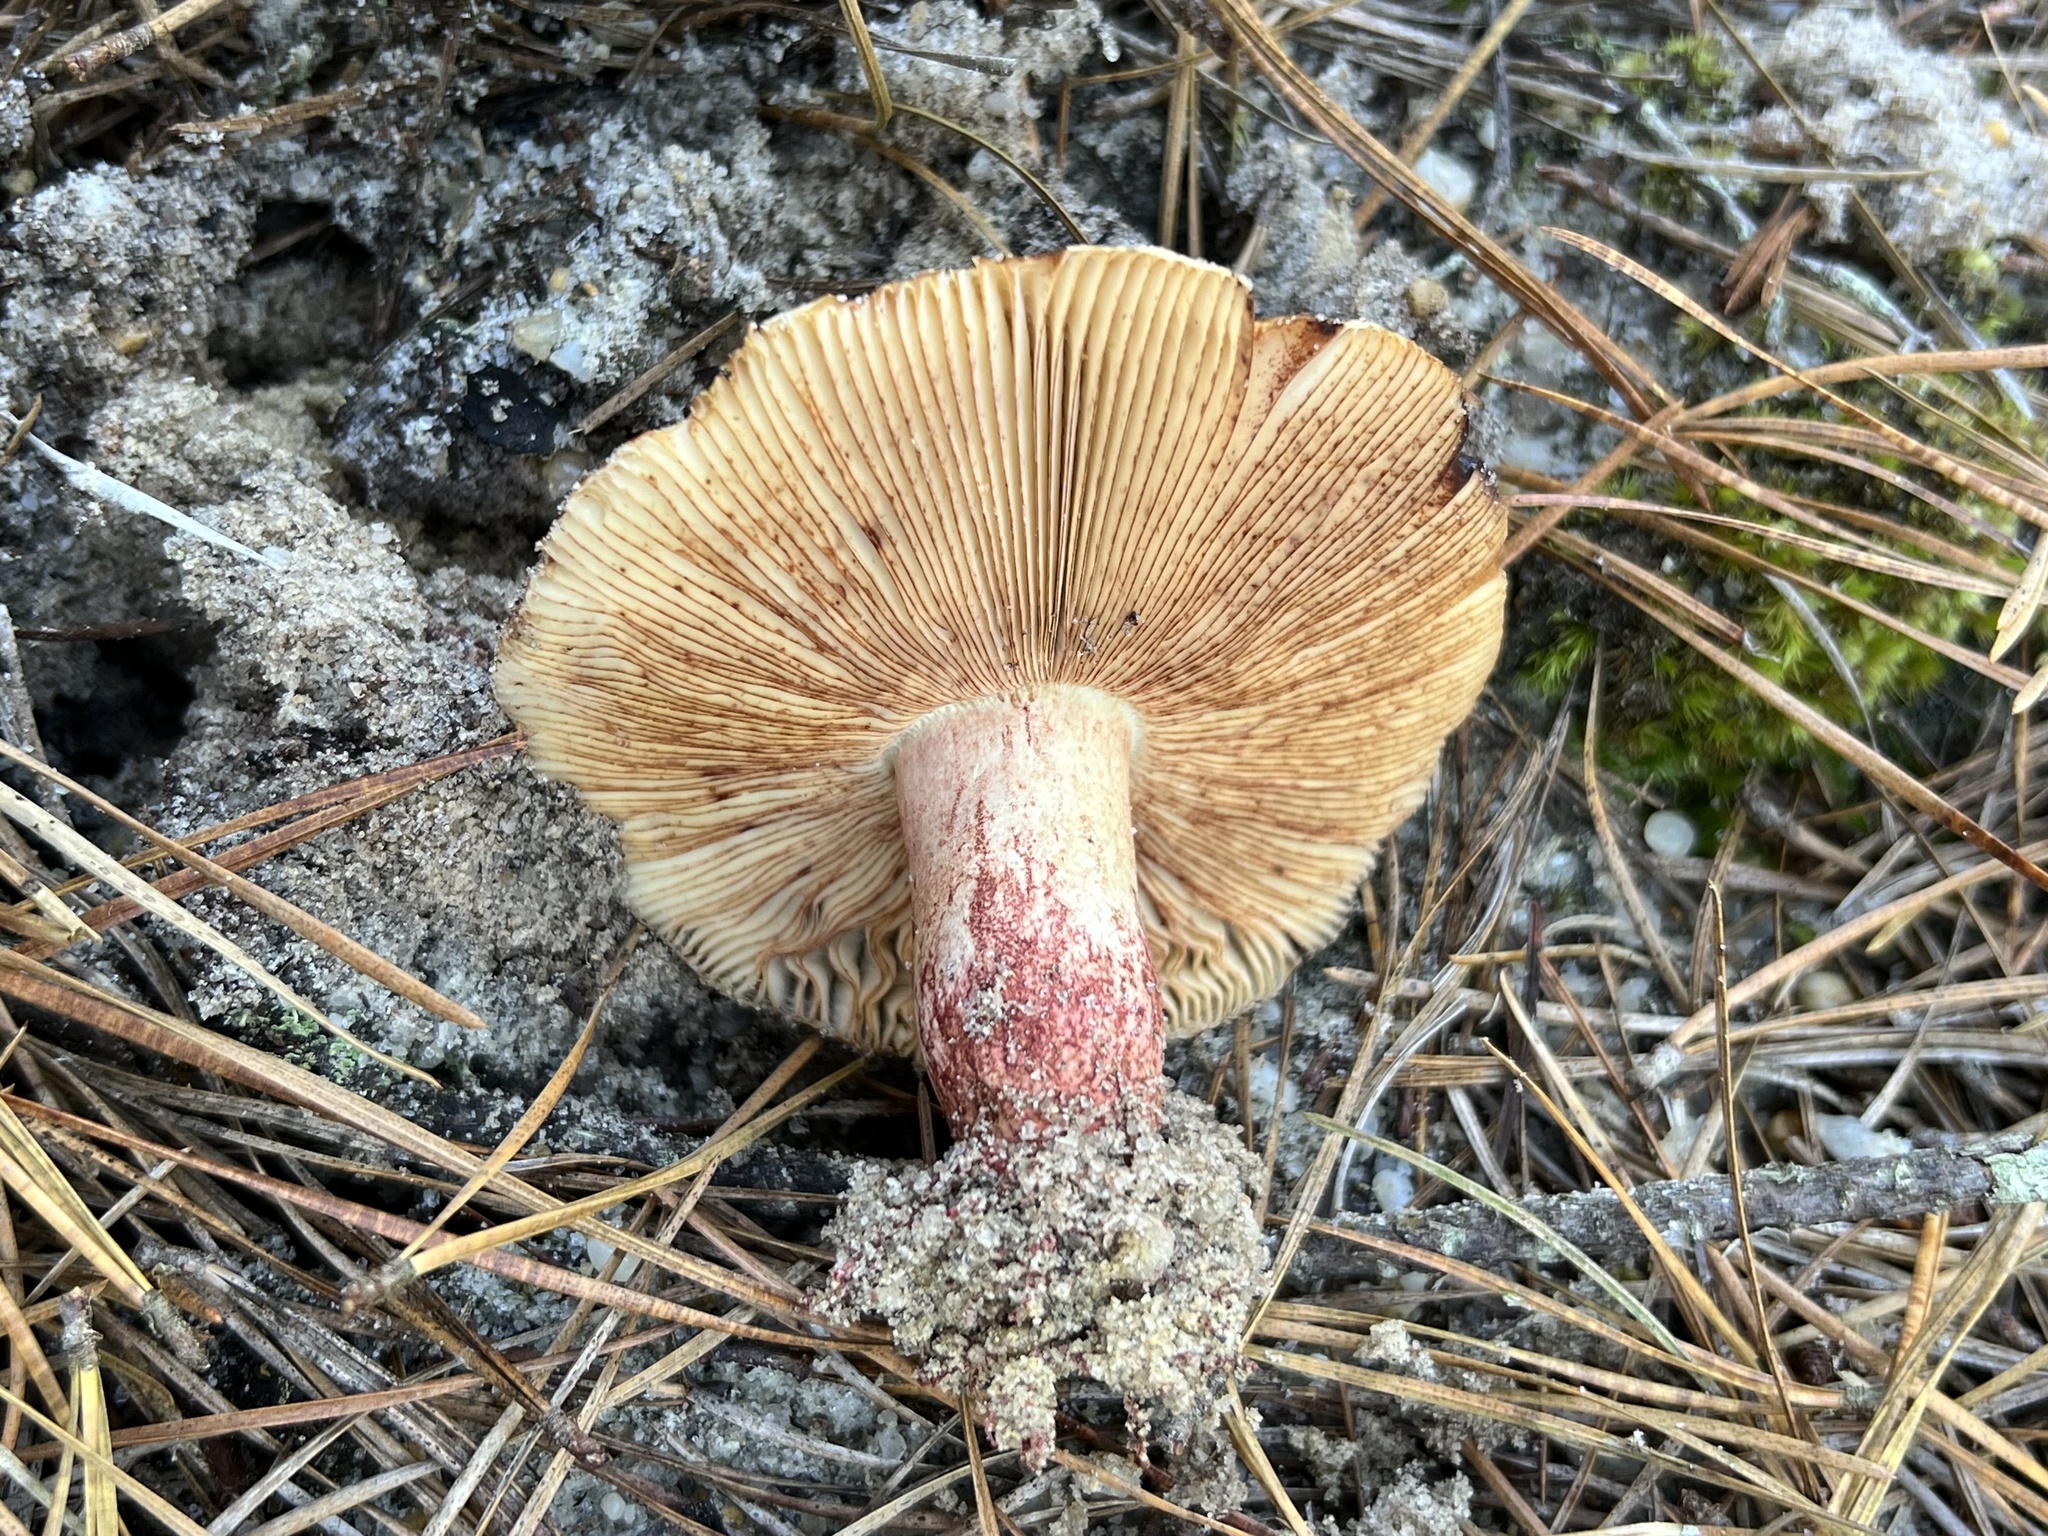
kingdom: Fungi
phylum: Basidiomycota
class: Agaricomycetes
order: Russulales
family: Russulaceae
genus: Russula
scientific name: Russula ventricosipes
